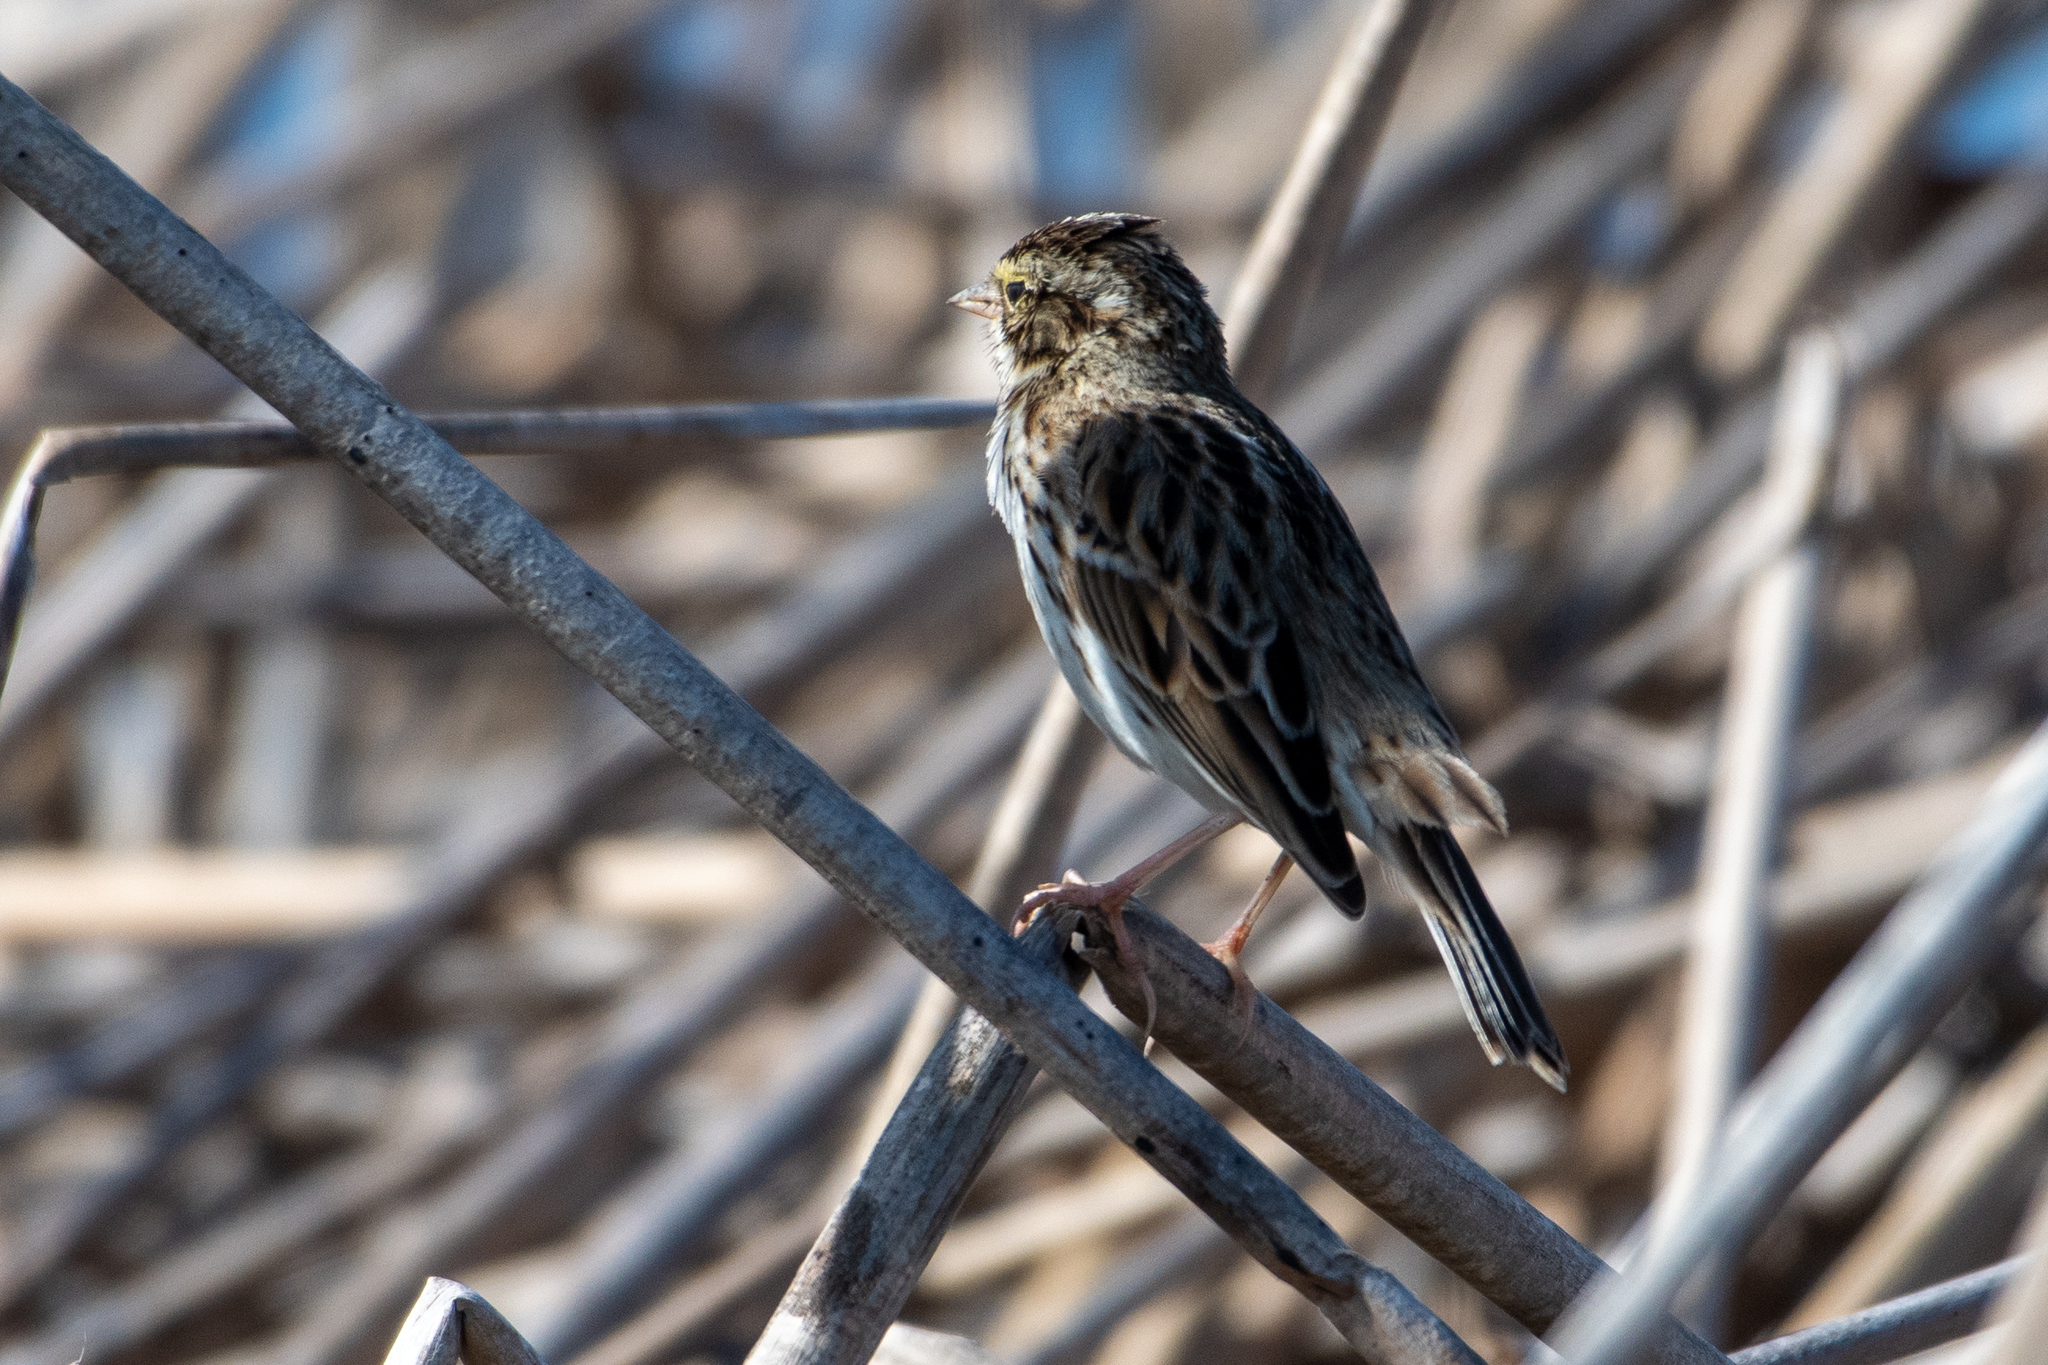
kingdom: Animalia
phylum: Chordata
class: Aves
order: Passeriformes
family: Passerellidae
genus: Passerculus
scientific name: Passerculus sandwichensis
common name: Savannah sparrow
